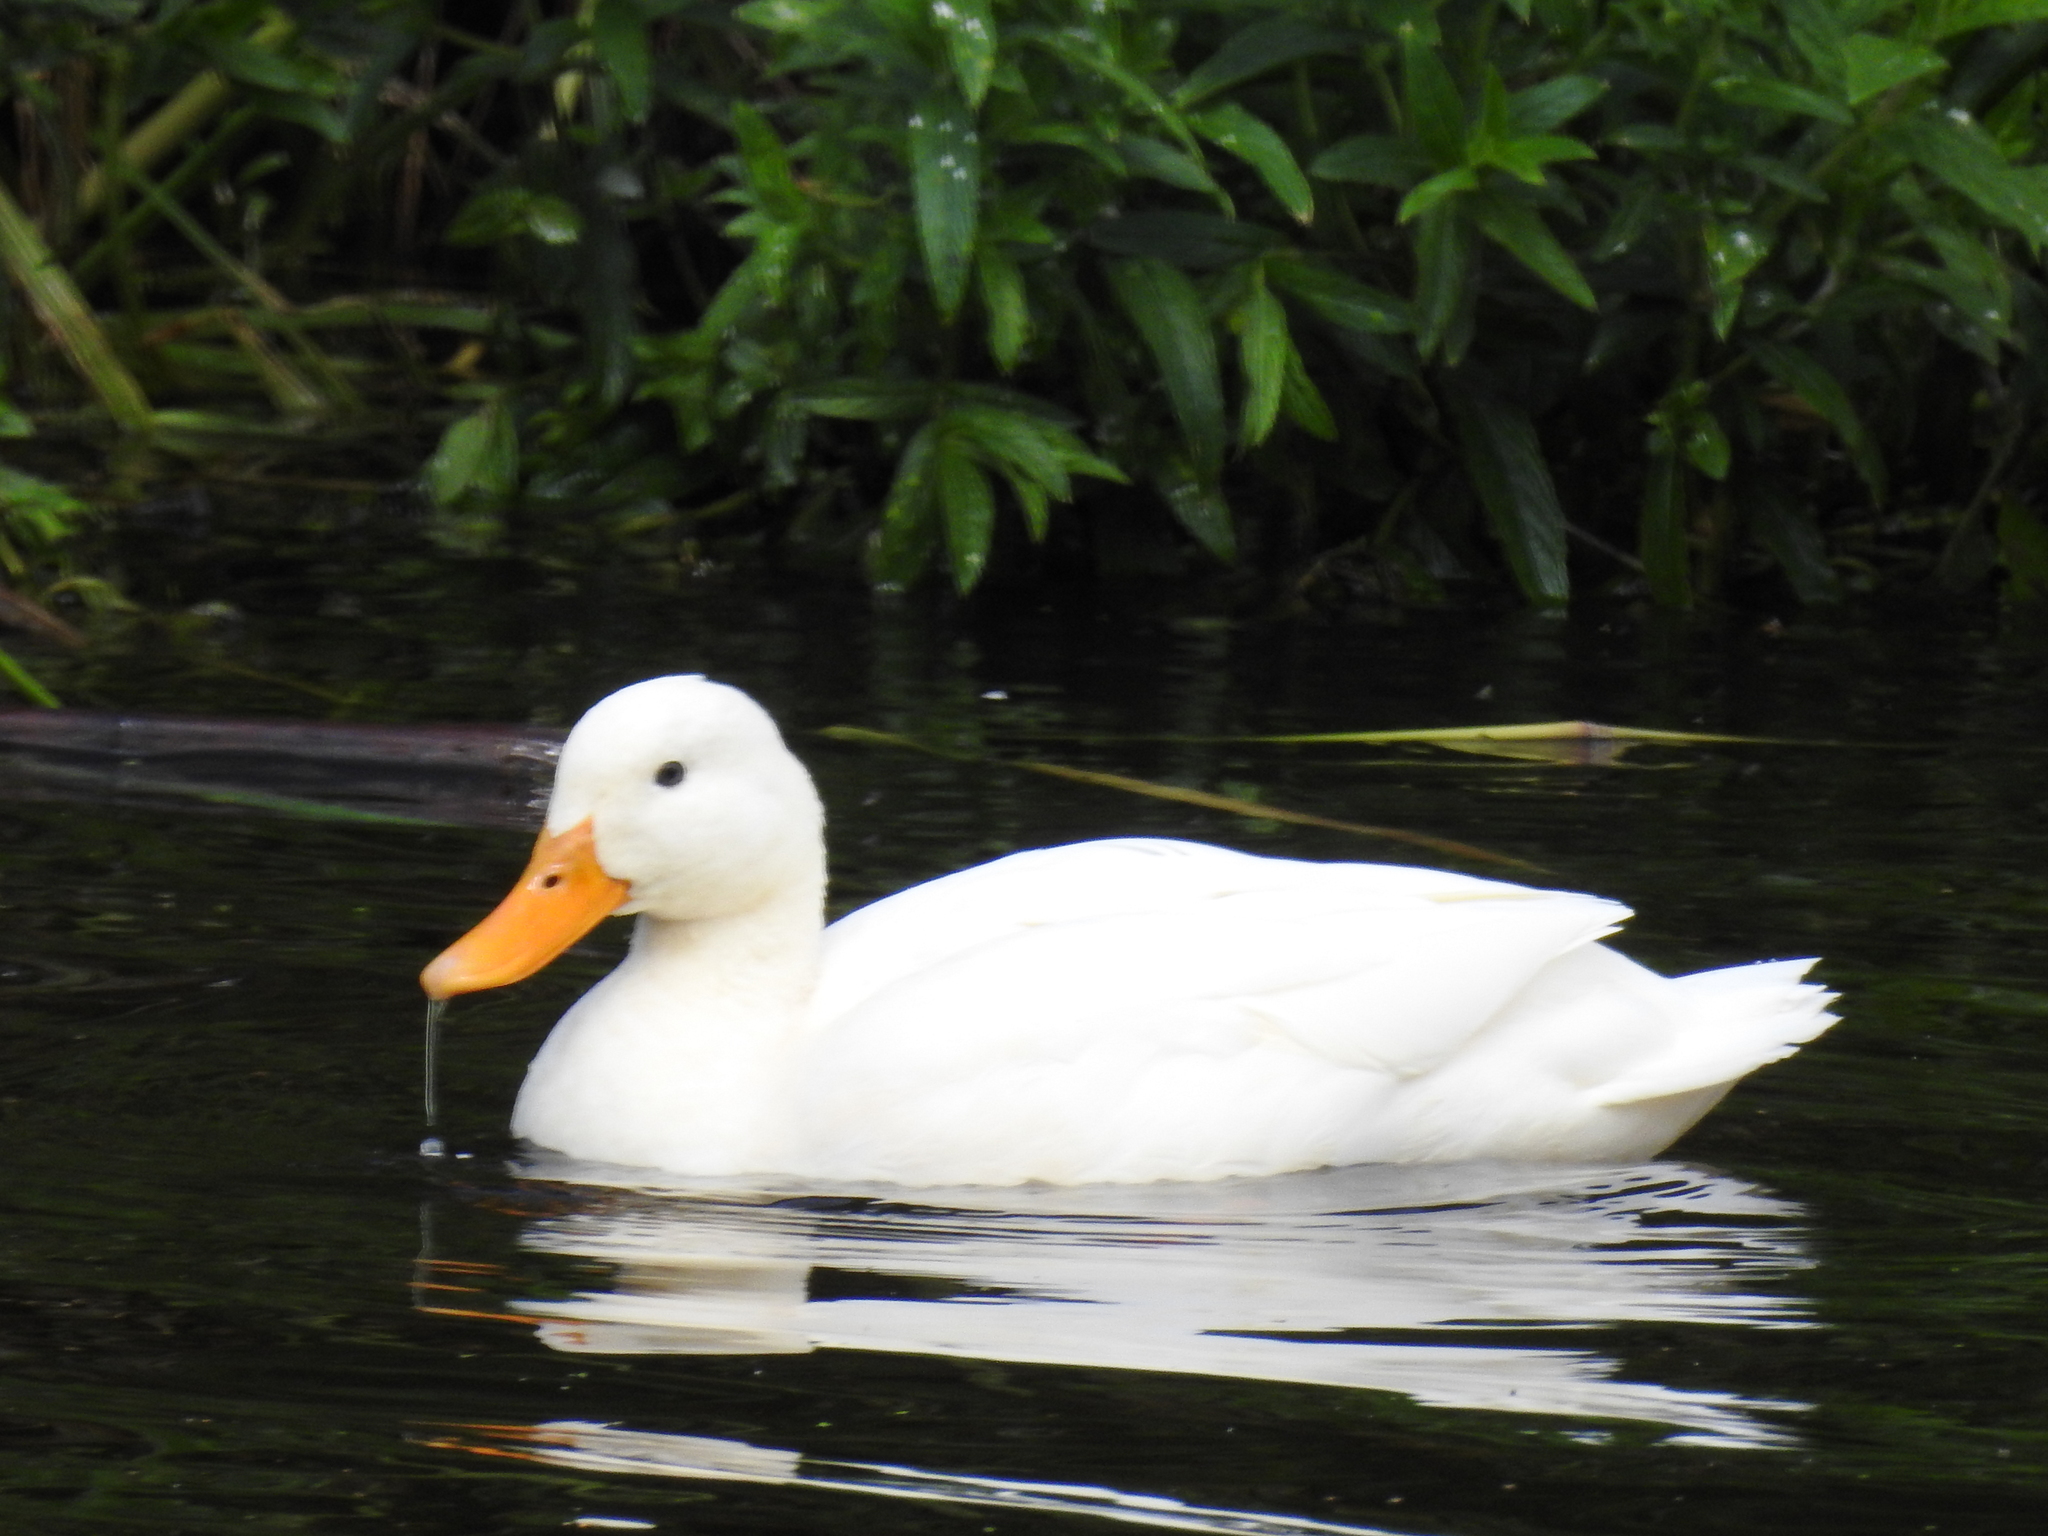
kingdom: Animalia
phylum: Chordata
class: Aves
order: Anseriformes
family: Anatidae
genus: Anas
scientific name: Anas platyrhynchos
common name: Mallard
